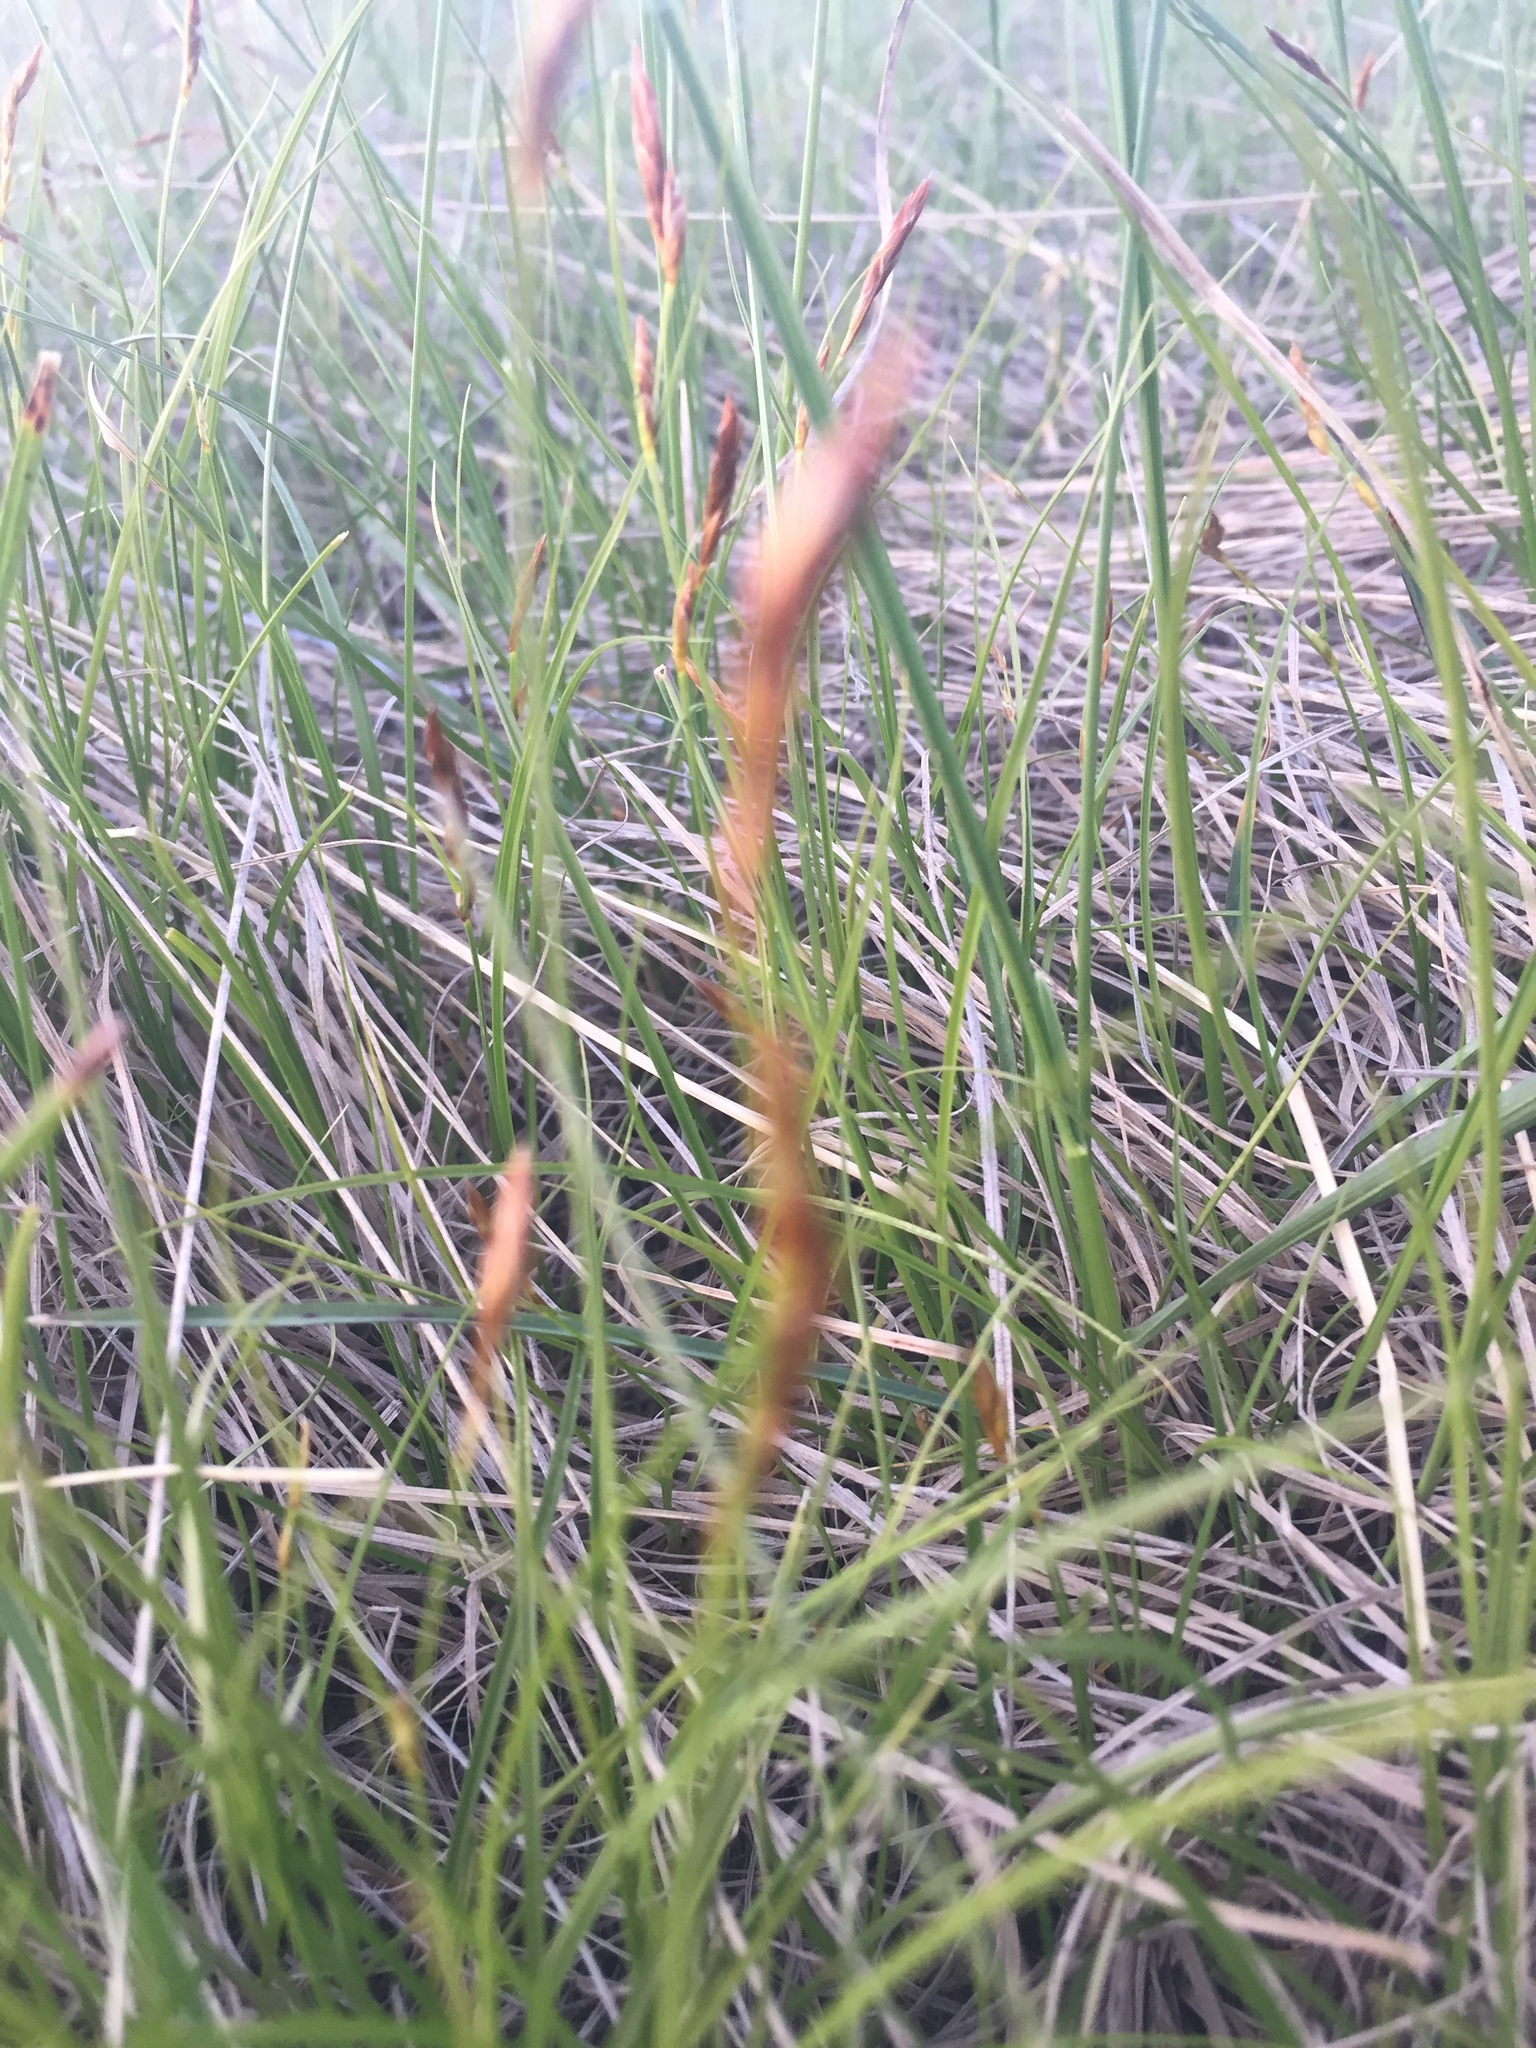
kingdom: Plantae
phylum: Tracheophyta
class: Liliopsida
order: Poales
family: Cyperaceae
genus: Carex
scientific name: Carex praecox
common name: Early sedge
